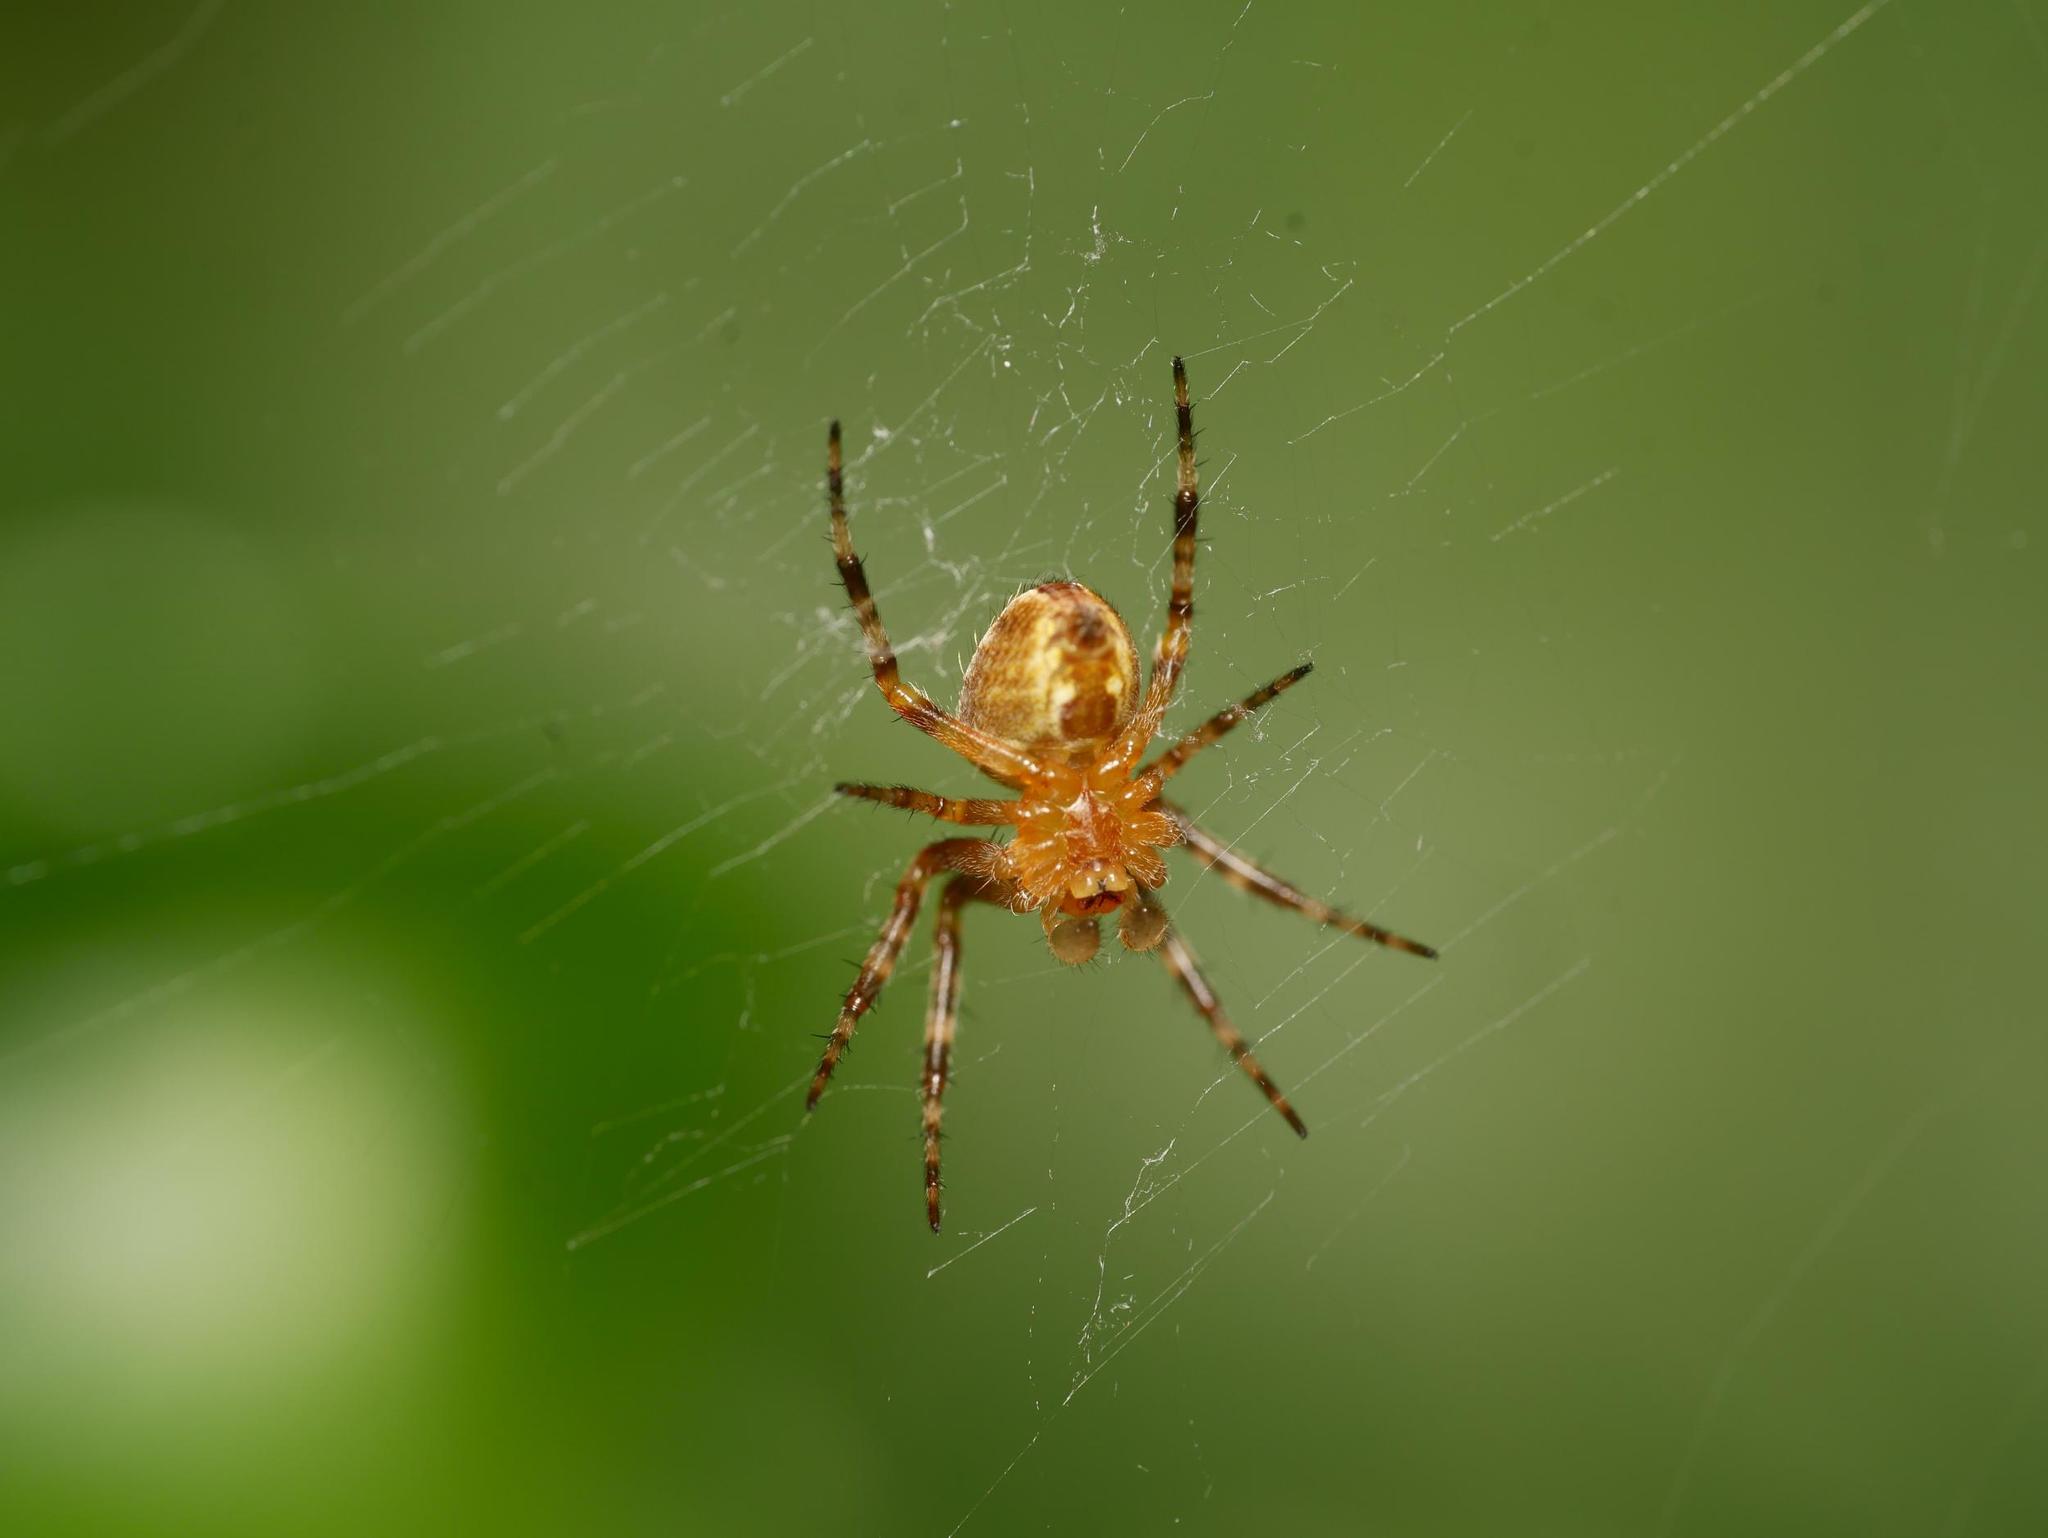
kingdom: Animalia
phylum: Arthropoda
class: Arachnida
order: Araneae
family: Araneidae
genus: Araneus
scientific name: Araneus diadematus
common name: Cross orbweaver
